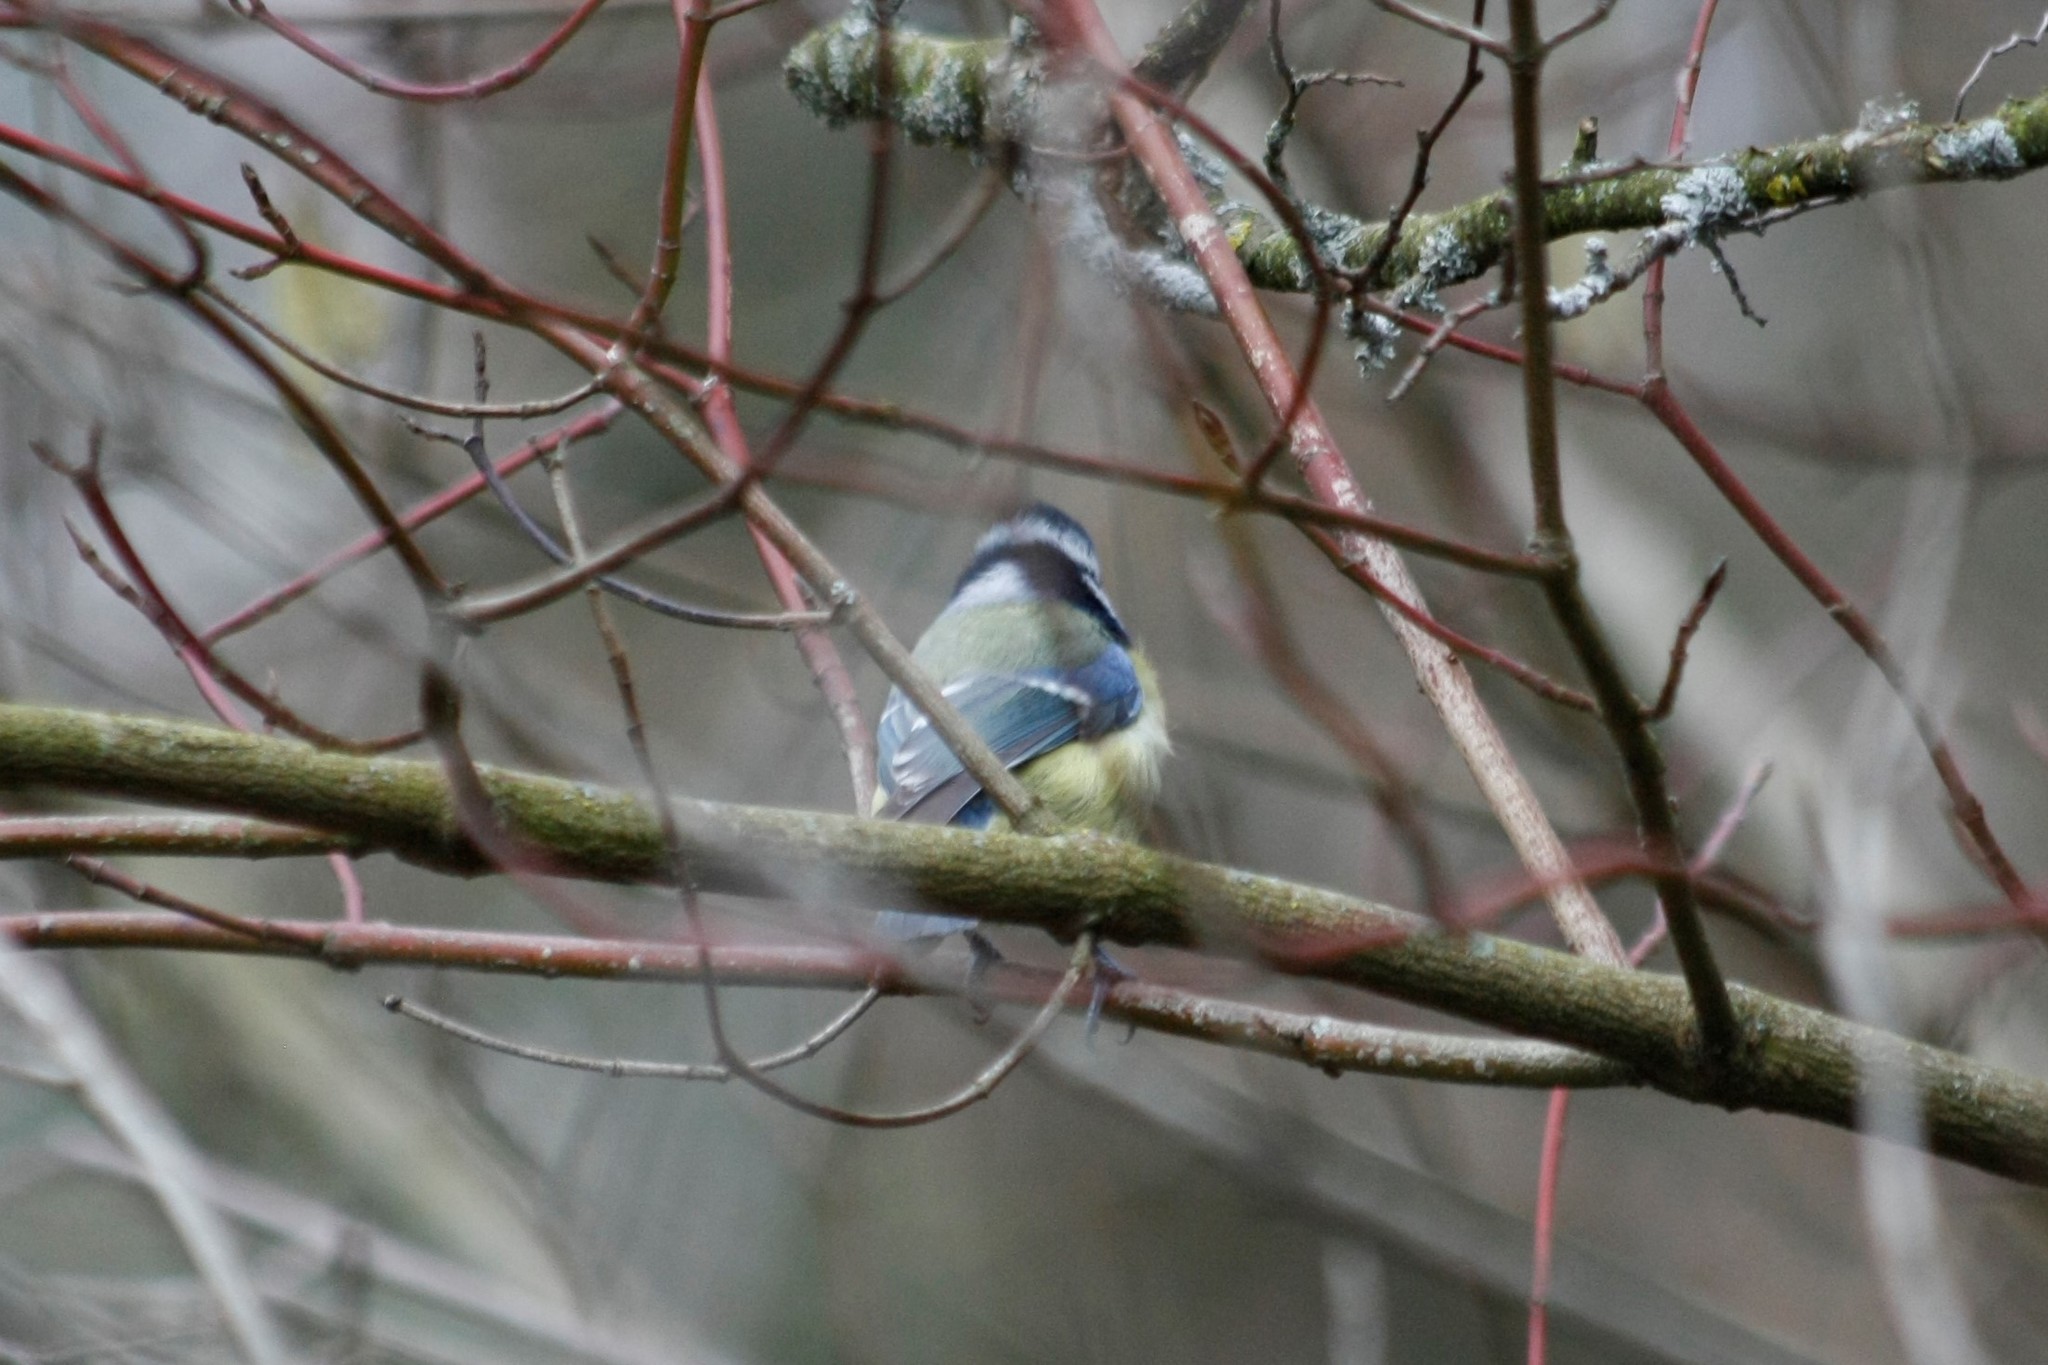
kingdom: Animalia
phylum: Chordata
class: Aves
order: Passeriformes
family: Paridae
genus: Cyanistes
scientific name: Cyanistes caeruleus
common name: Eurasian blue tit
